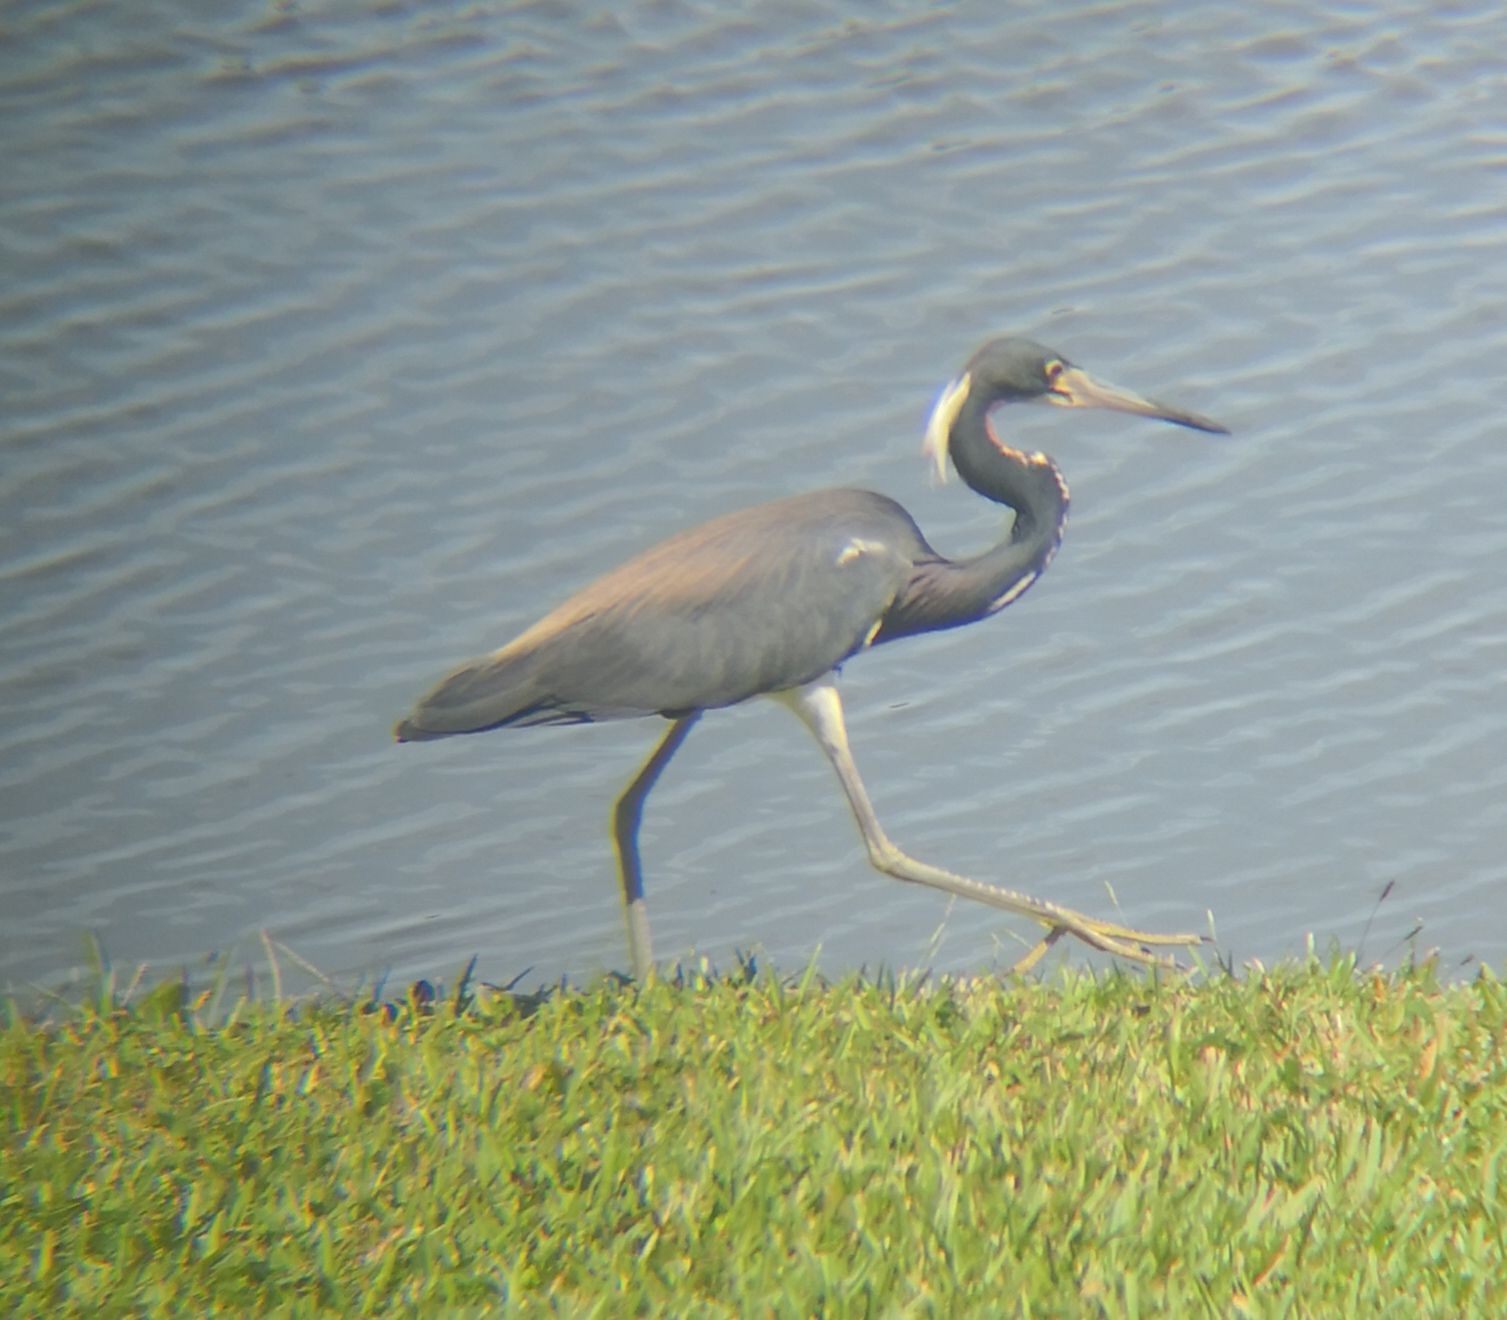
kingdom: Animalia
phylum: Chordata
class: Aves
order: Pelecaniformes
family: Ardeidae
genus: Egretta
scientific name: Egretta tricolor
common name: Tricolored heron
